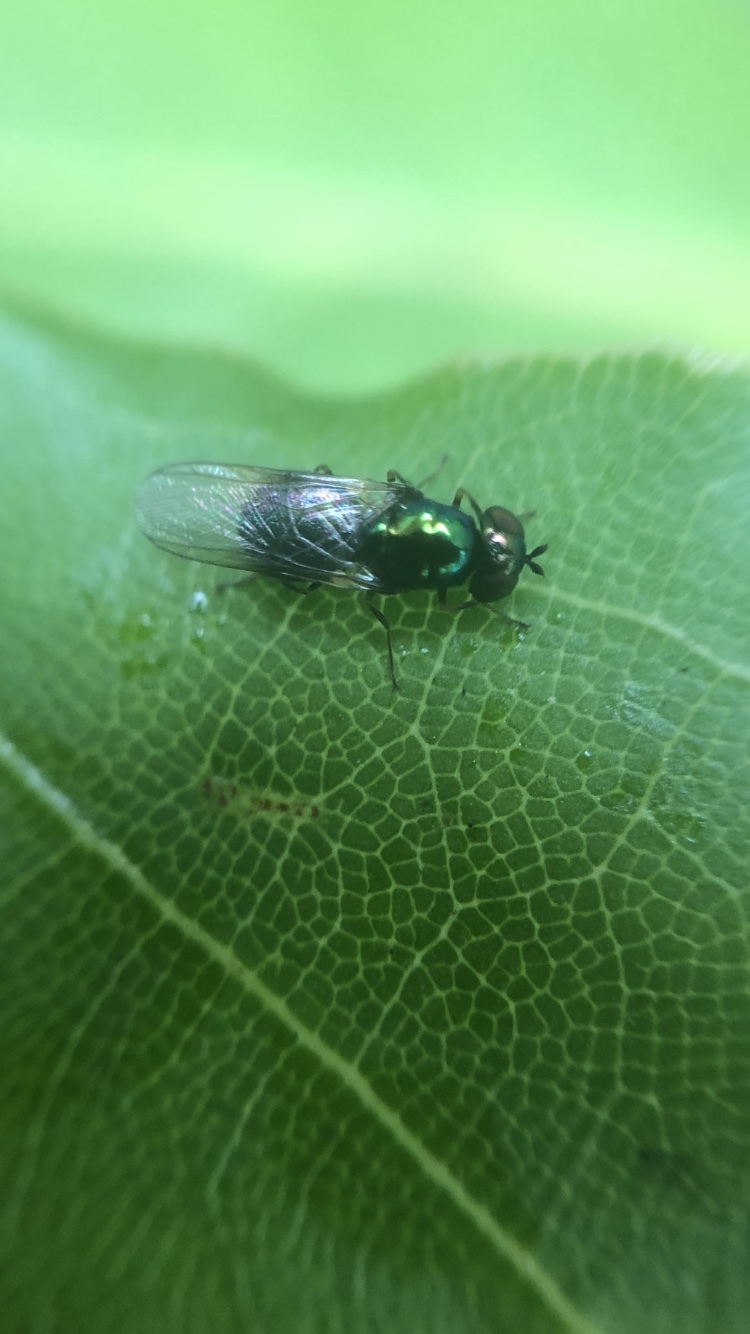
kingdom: Animalia
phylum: Arthropoda
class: Insecta
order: Diptera
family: Stratiomyidae
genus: Microchrysa
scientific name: Microchrysa polita
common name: Black-horned gem
